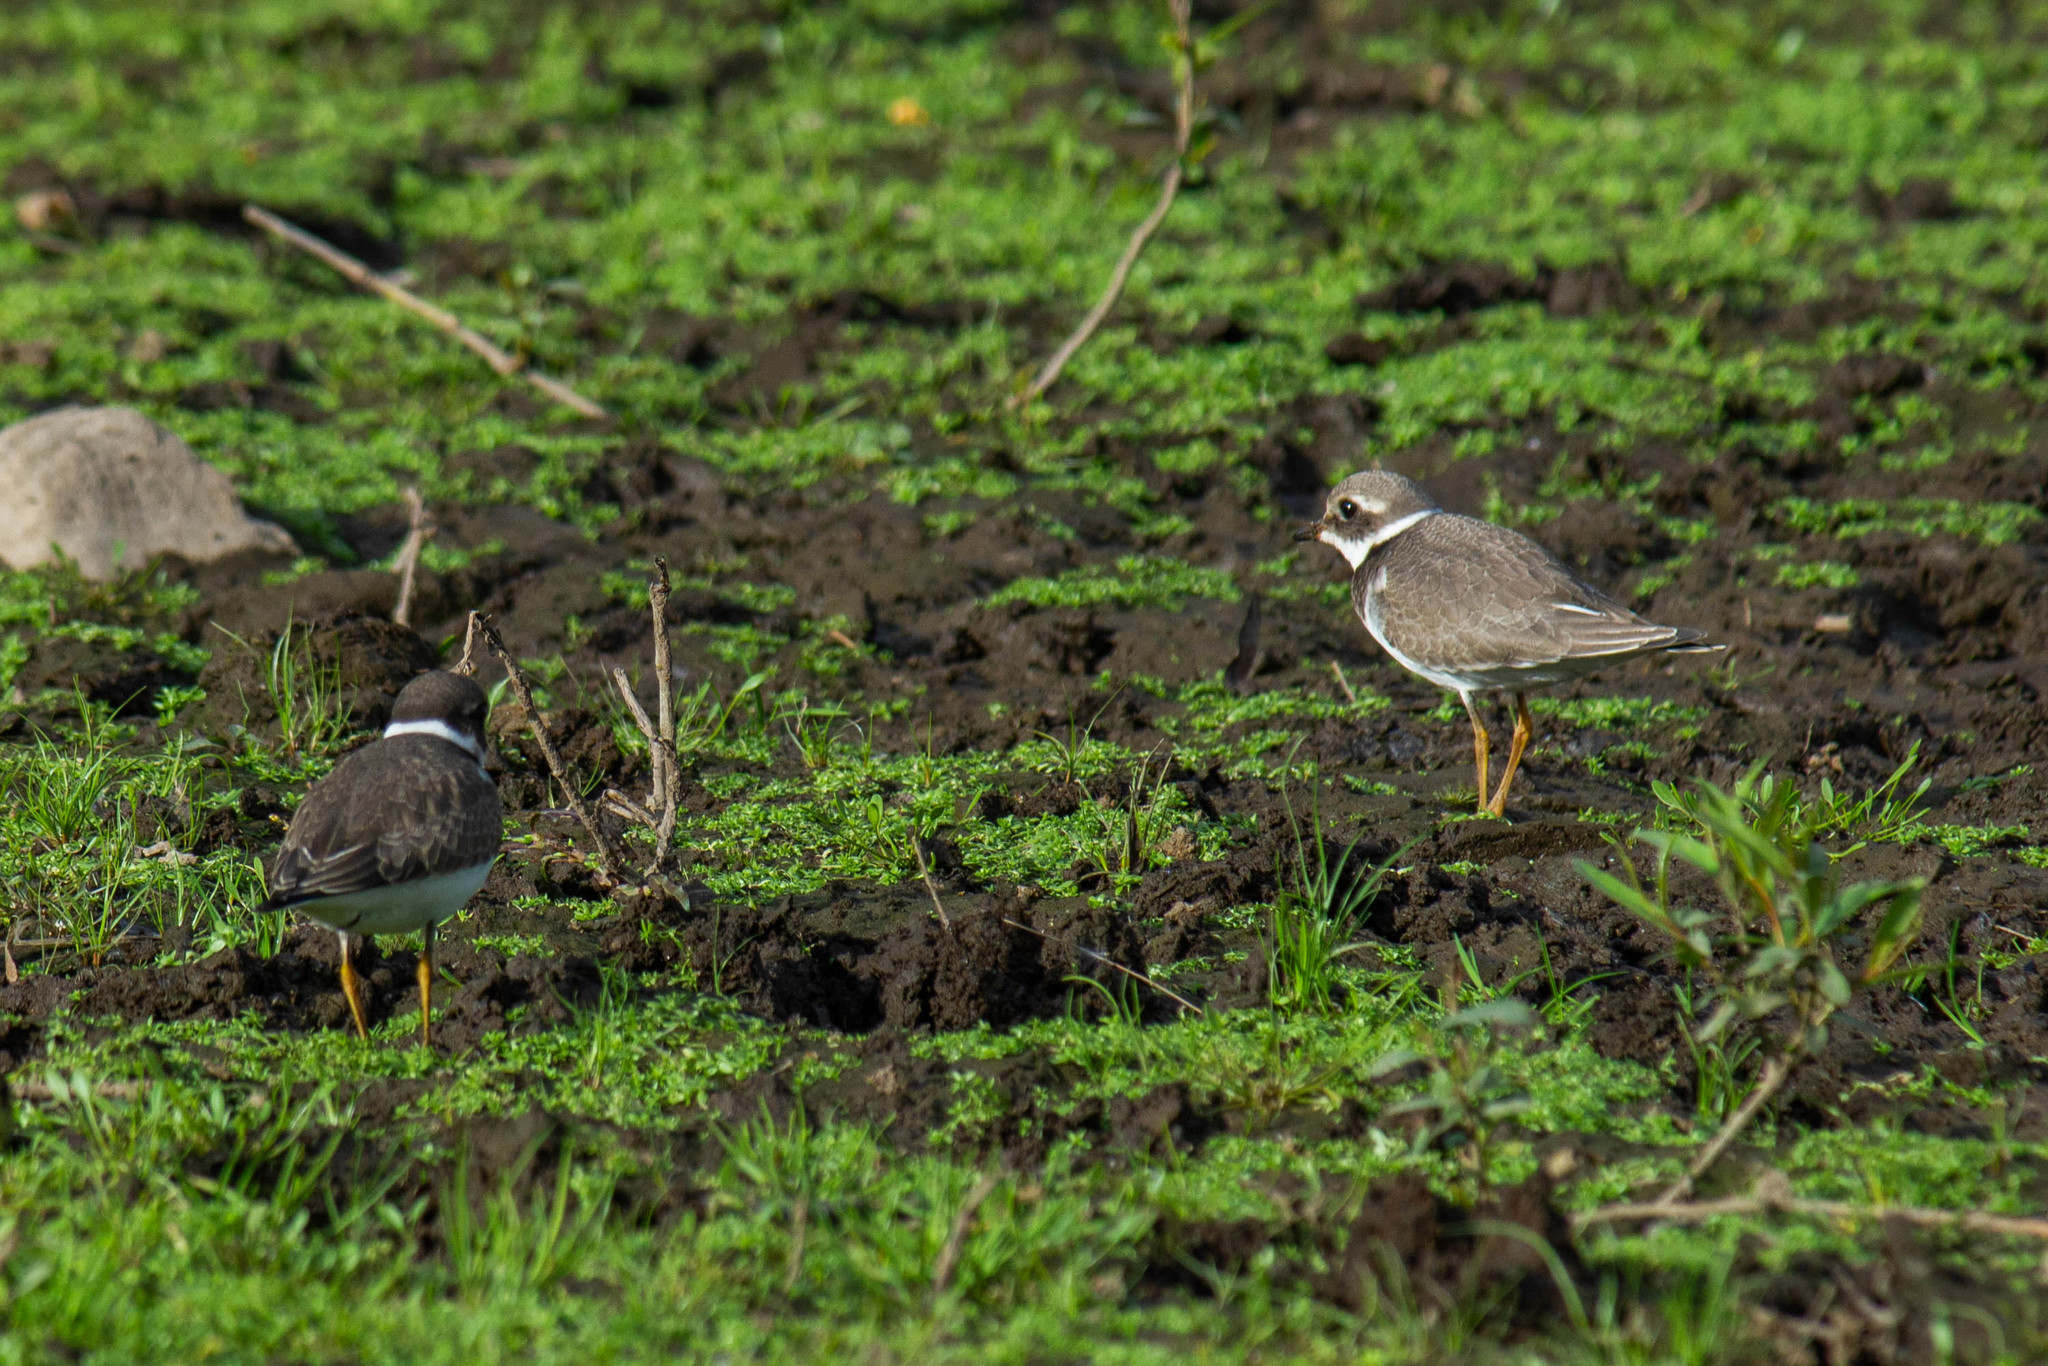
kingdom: Animalia
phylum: Chordata
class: Aves
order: Charadriiformes
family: Charadriidae
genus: Charadrius
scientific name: Charadrius hiaticula
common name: Common ringed plover
